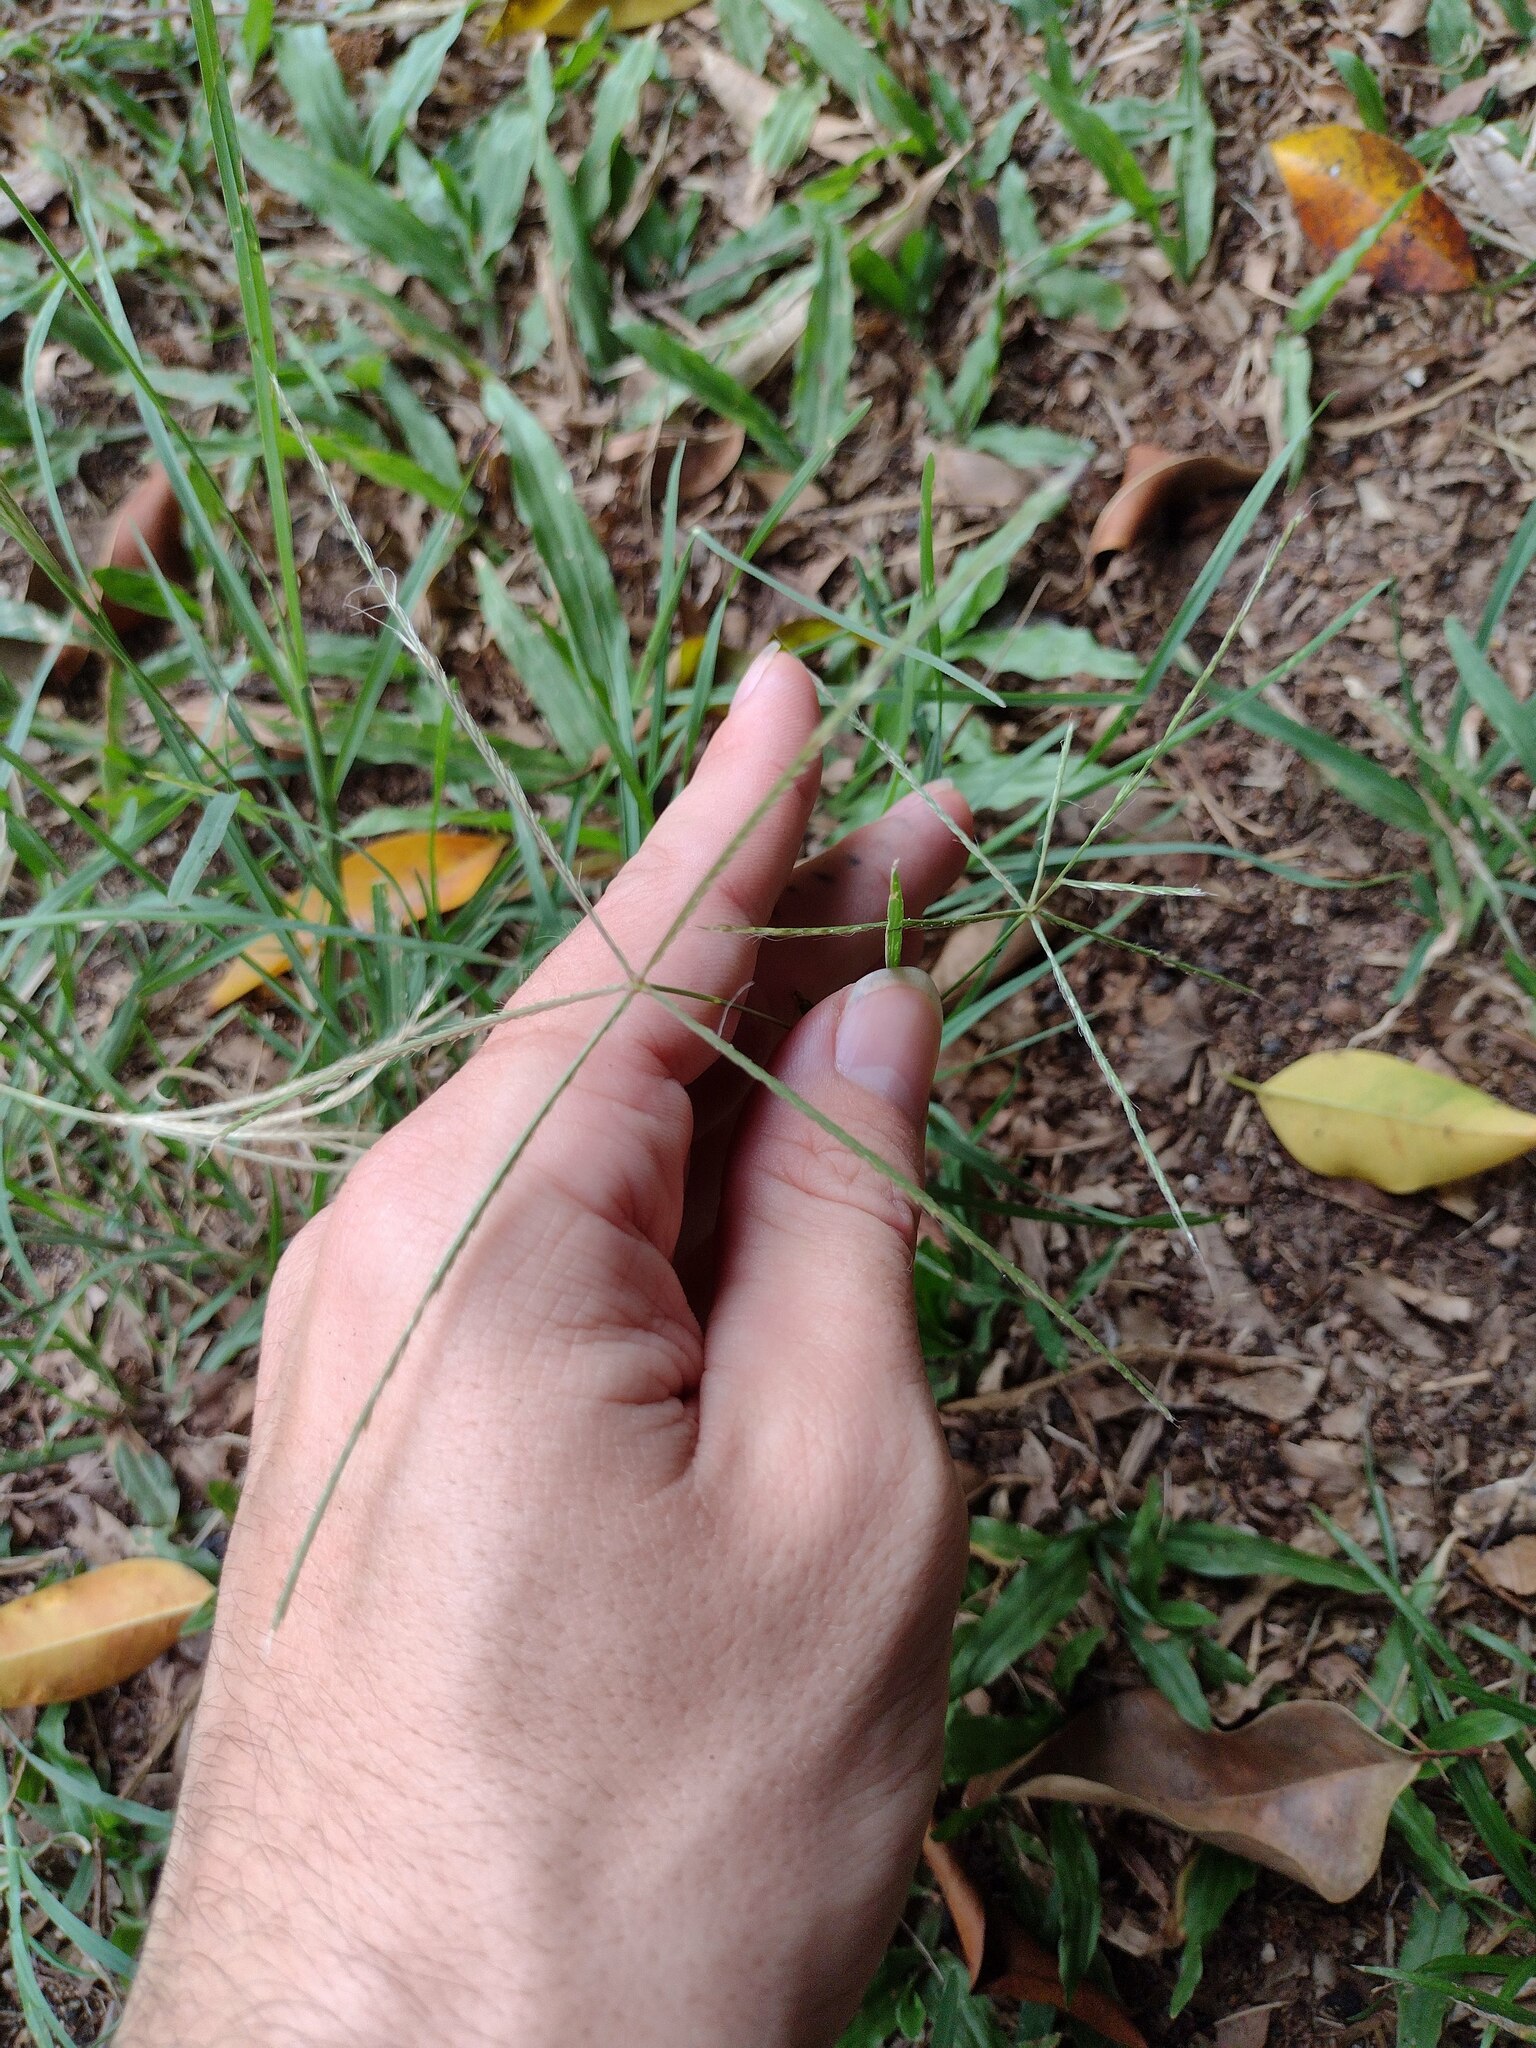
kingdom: Plantae
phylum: Tracheophyta
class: Liliopsida
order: Poales
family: Poaceae
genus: Chloris
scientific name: Chloris divaricata
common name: Spreading windmill grass
